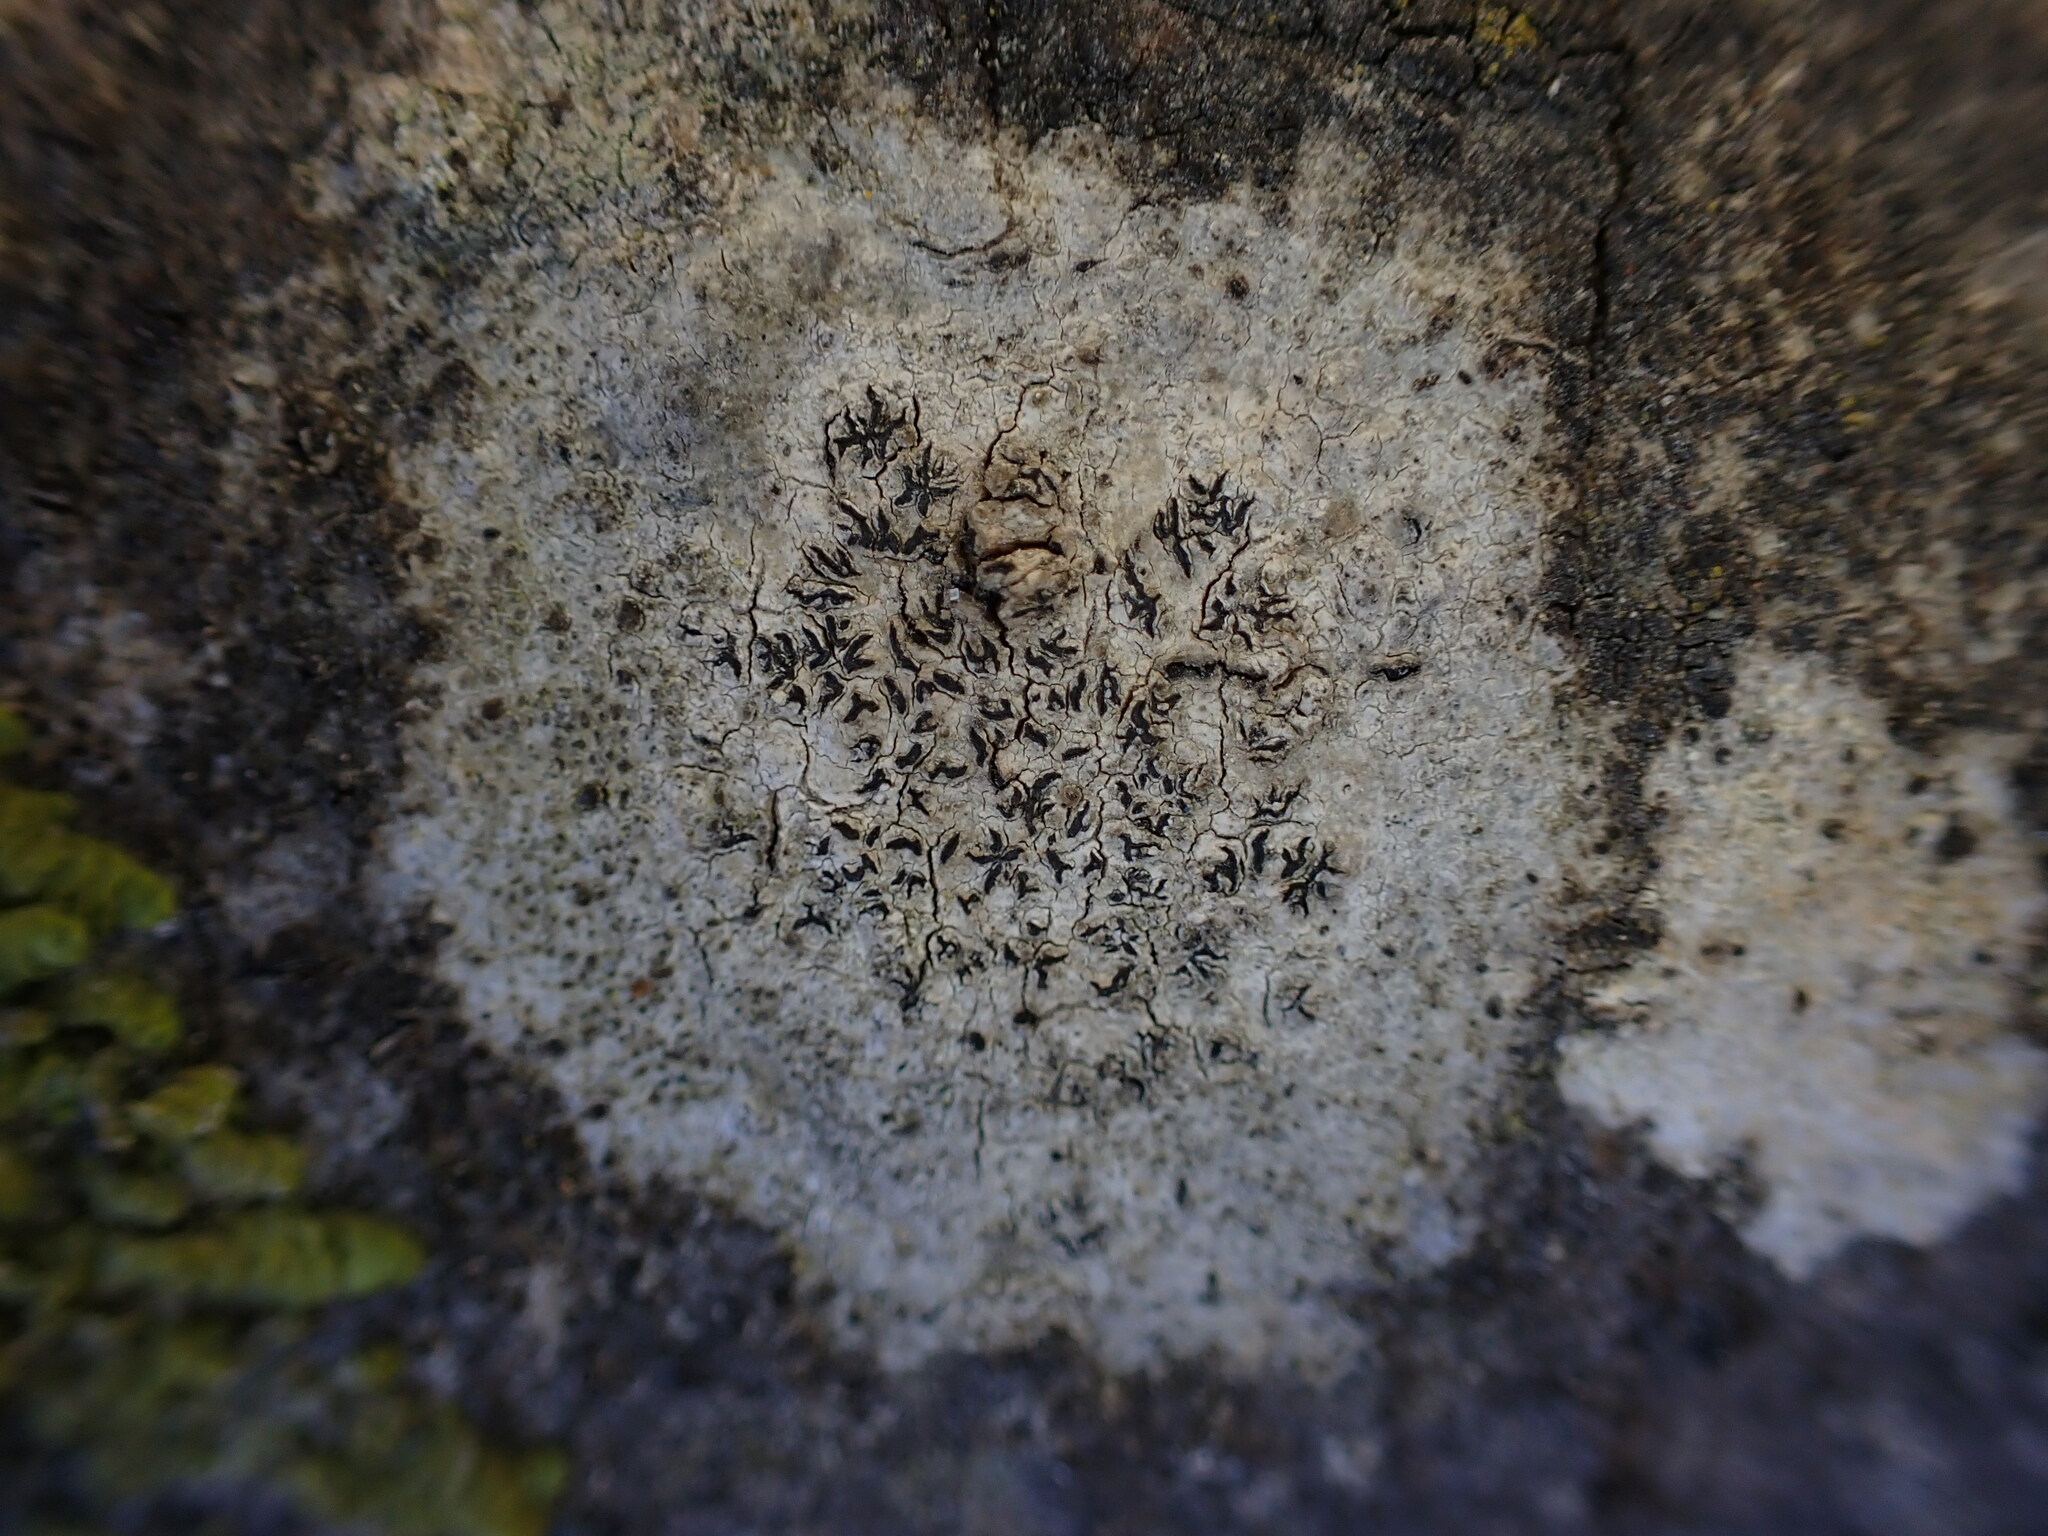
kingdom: Fungi
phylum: Ascomycota
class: Lecanoromycetes
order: Ostropales
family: Graphidaceae
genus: Graphis
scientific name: Graphis scripta
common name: Script lichen
